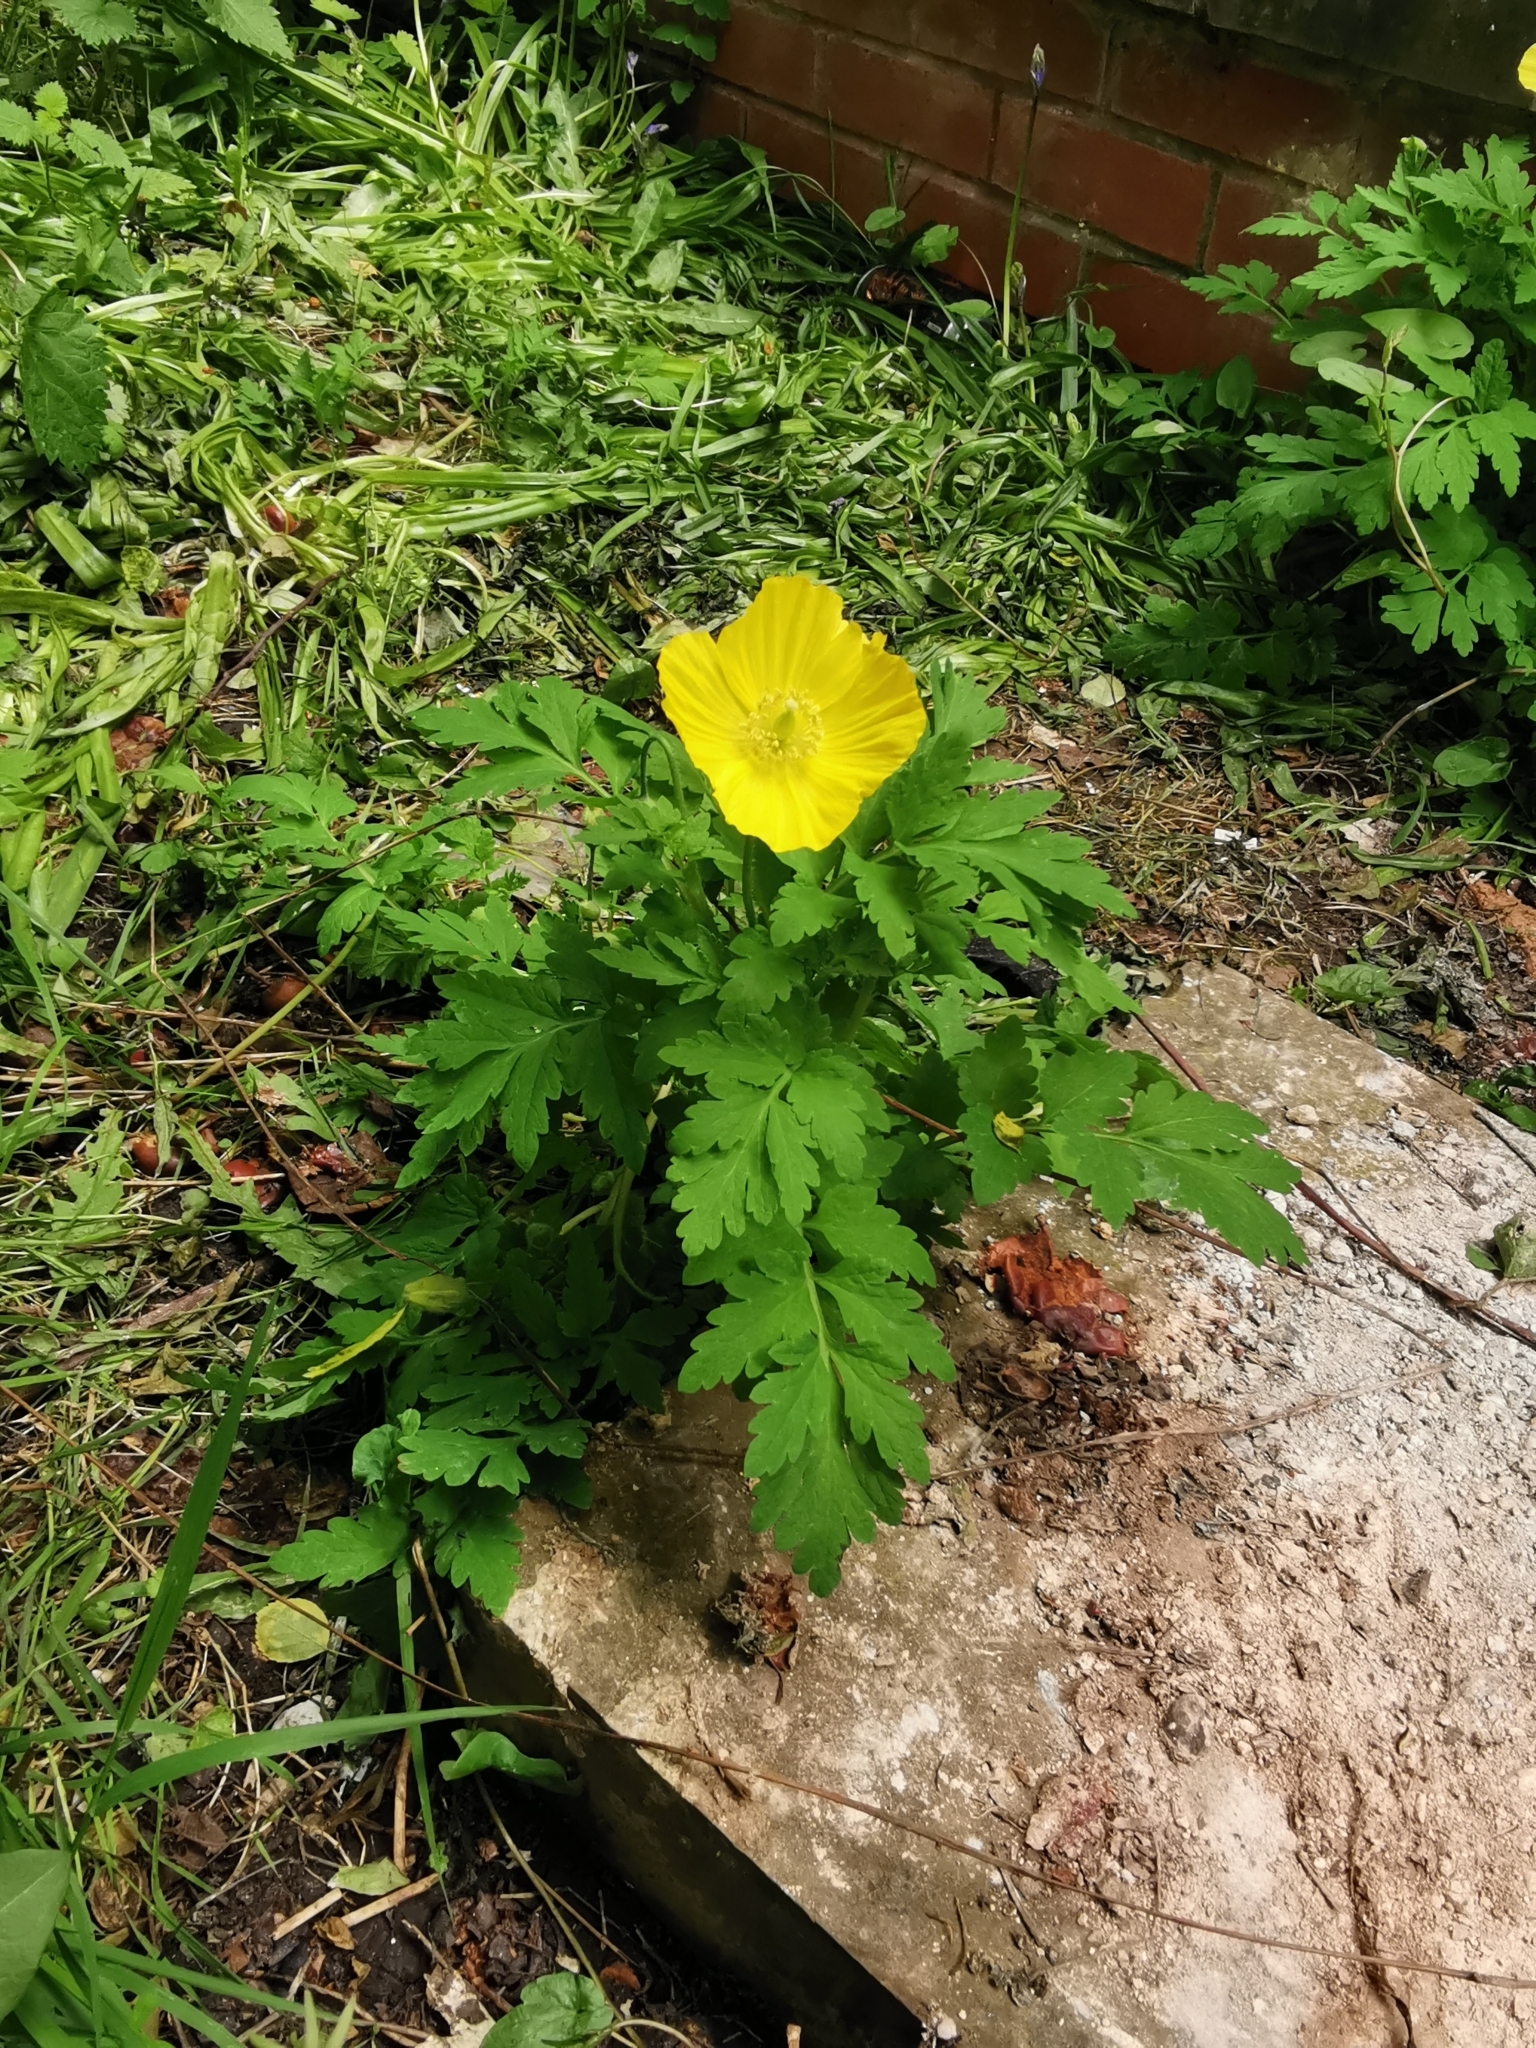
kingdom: Plantae
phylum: Tracheophyta
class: Magnoliopsida
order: Ranunculales
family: Papaveraceae
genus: Papaver
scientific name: Papaver cambricum
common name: Poppy
